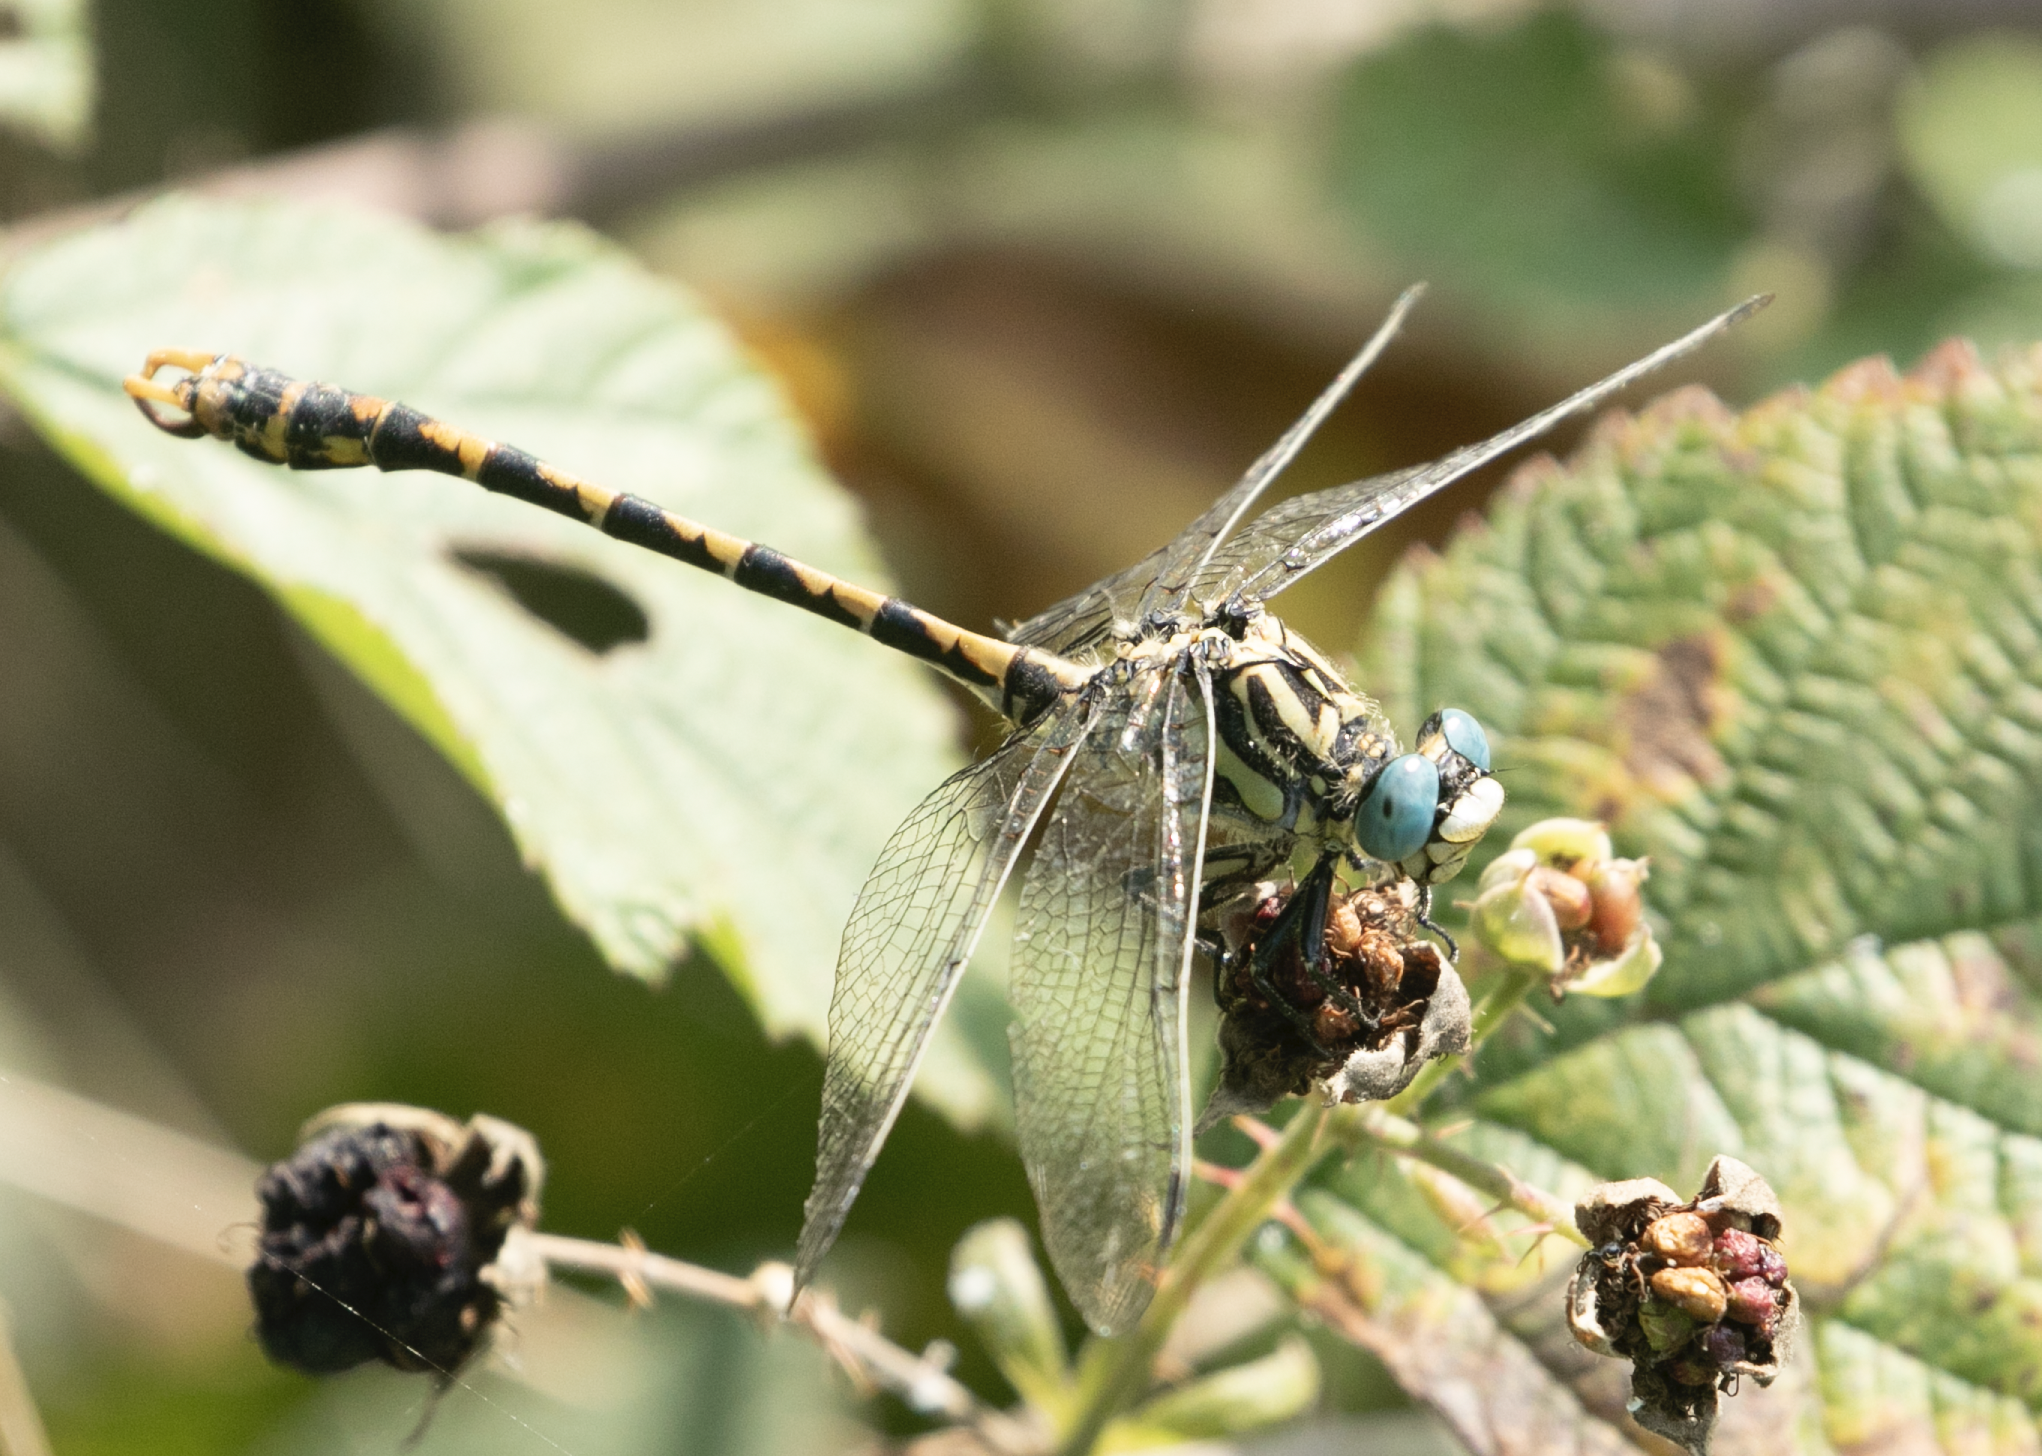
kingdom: Animalia
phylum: Arthropoda
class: Insecta
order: Odonata
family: Gomphidae
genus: Onychogomphus
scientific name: Onychogomphus uncatus
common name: Large pincertail
